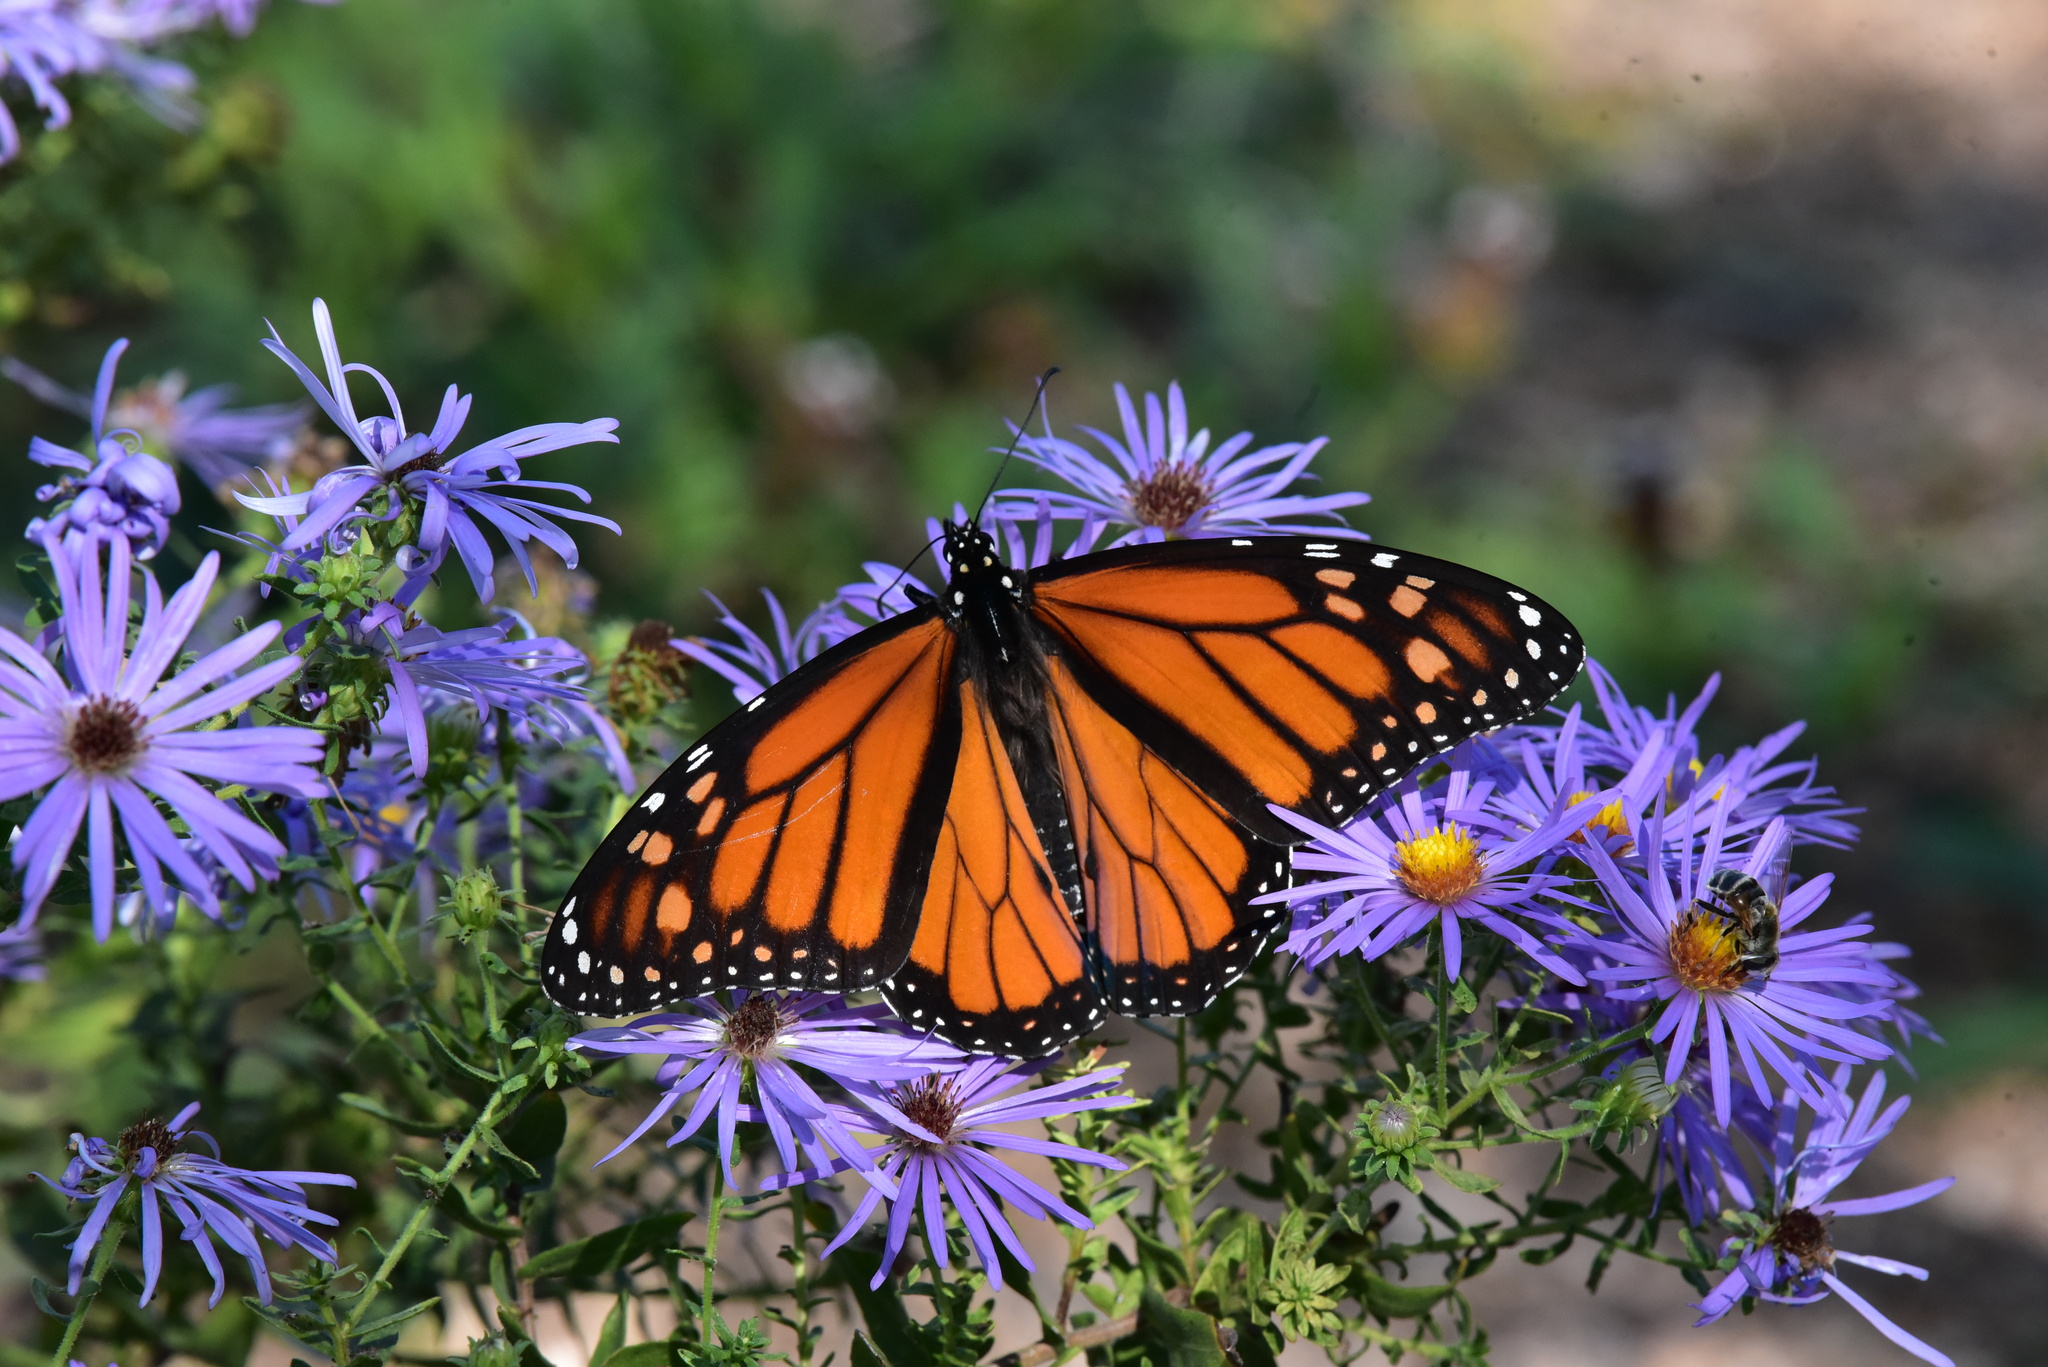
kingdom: Animalia
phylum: Arthropoda
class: Insecta
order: Lepidoptera
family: Nymphalidae
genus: Danaus
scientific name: Danaus plexippus
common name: Monarch
